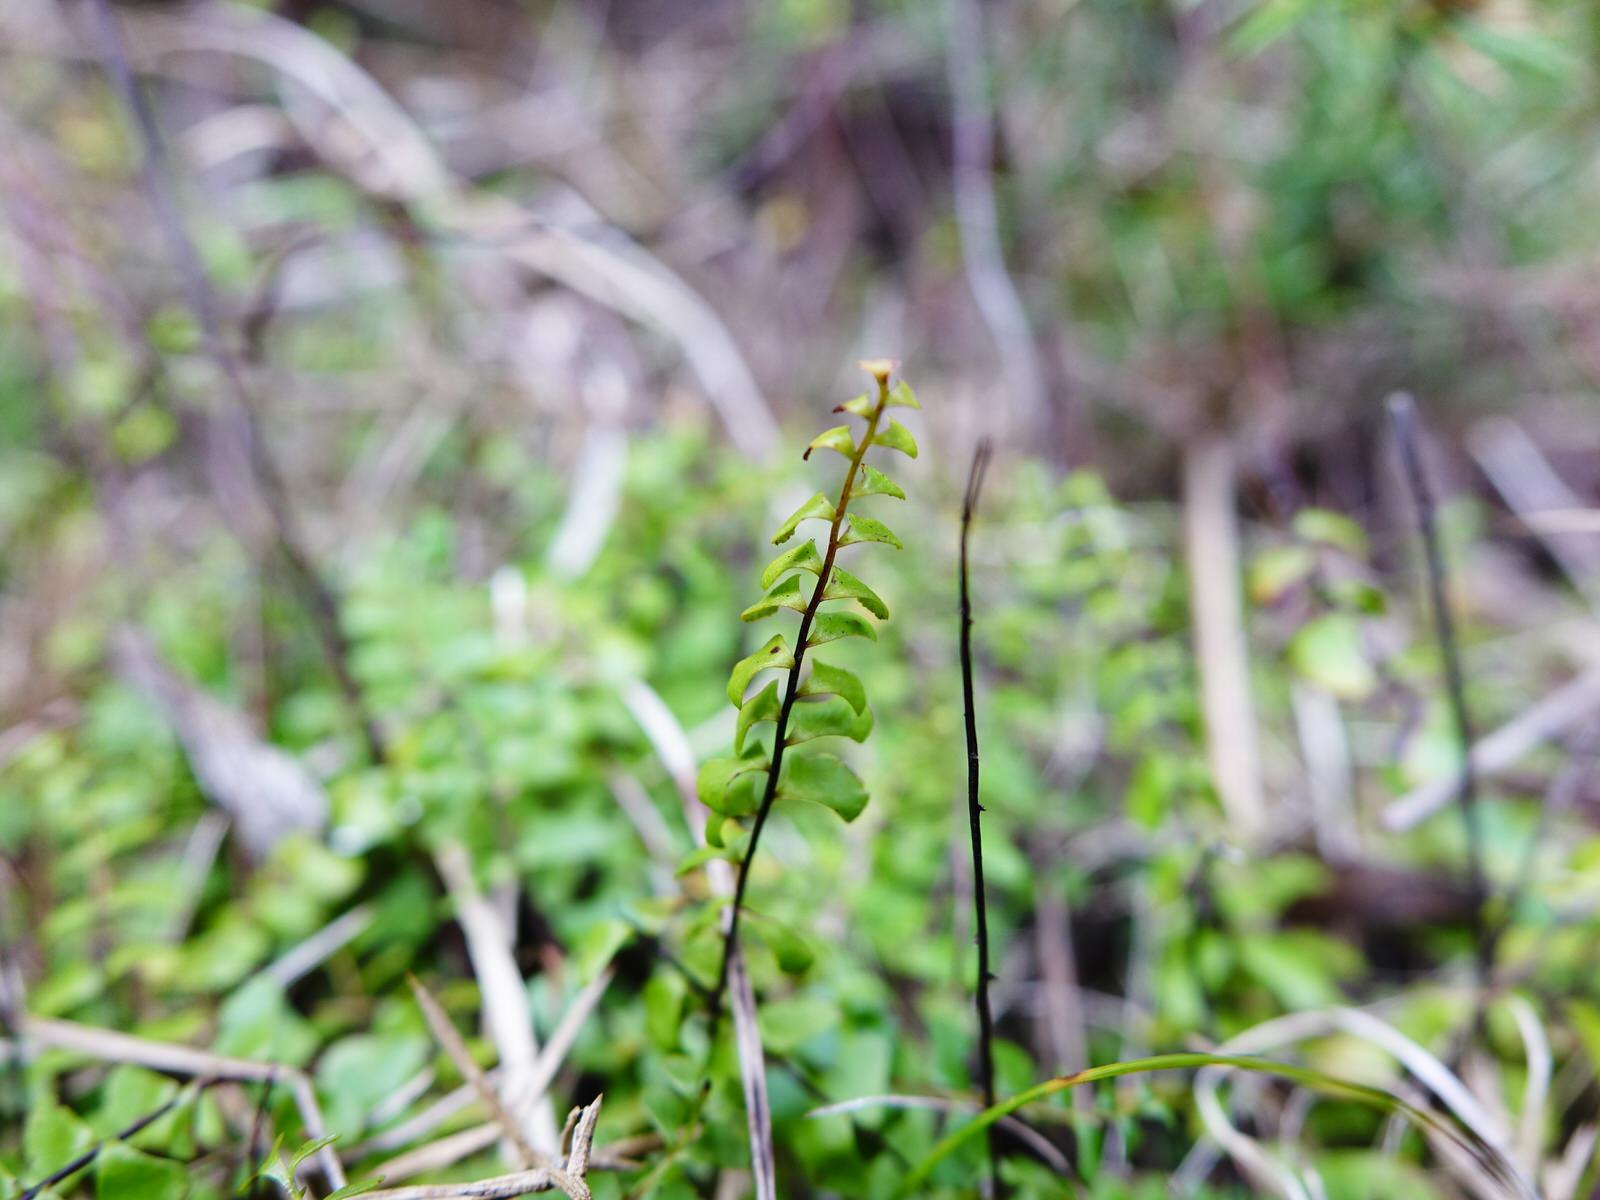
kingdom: Plantae
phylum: Tracheophyta
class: Polypodiopsida
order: Polypodiales
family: Lindsaeaceae
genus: Lindsaea
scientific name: Lindsaea linearis
